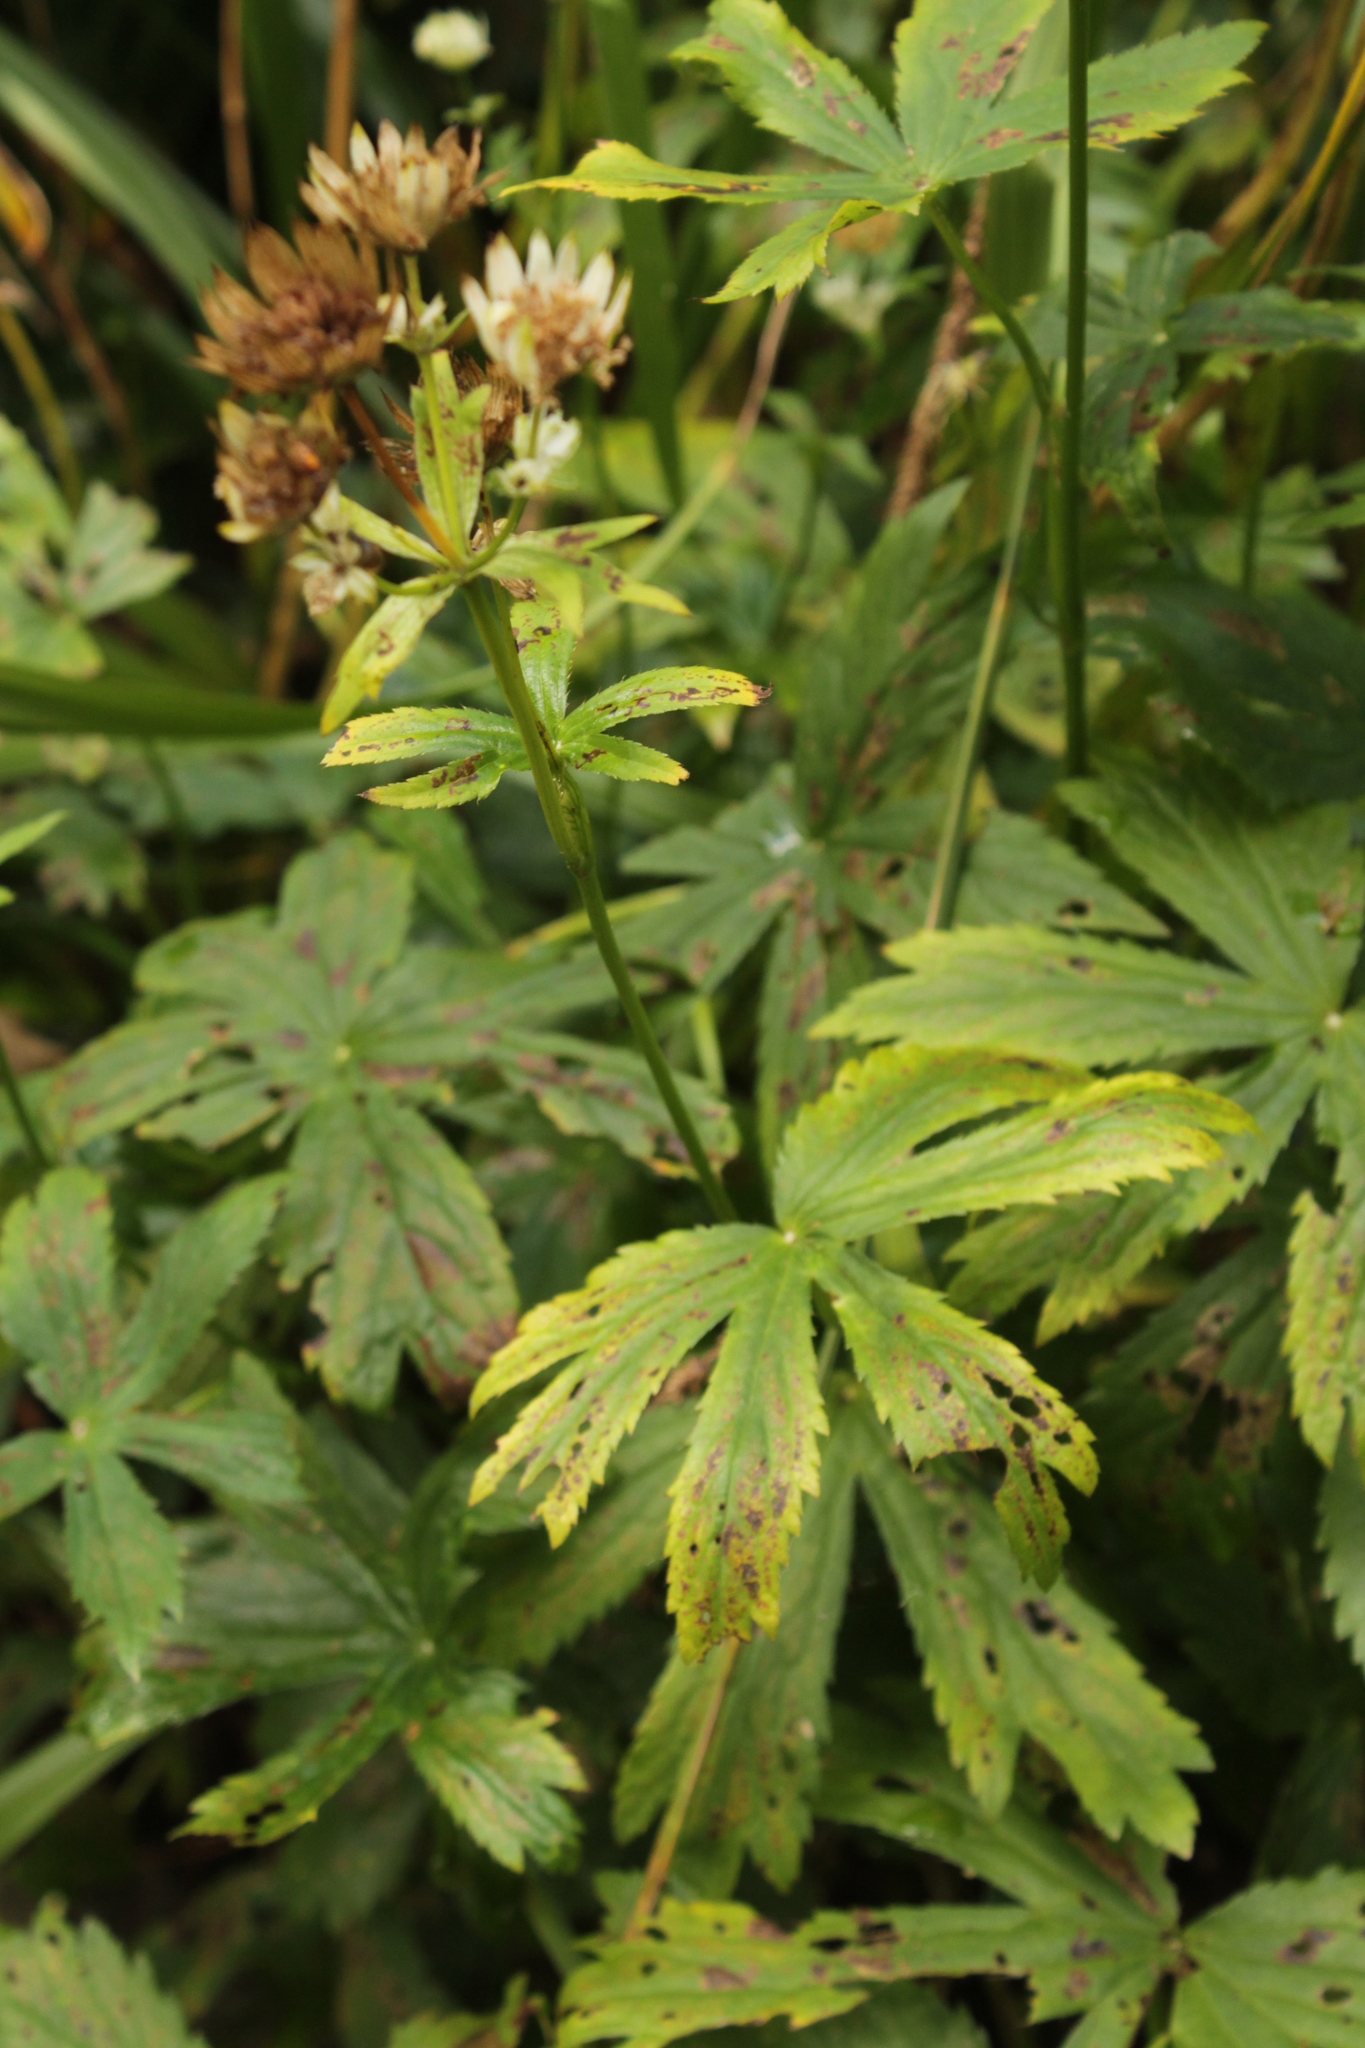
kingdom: Plantae
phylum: Tracheophyta
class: Magnoliopsida
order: Apiales
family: Apiaceae
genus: Astrantia
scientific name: Astrantia major
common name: Greater masterwort
